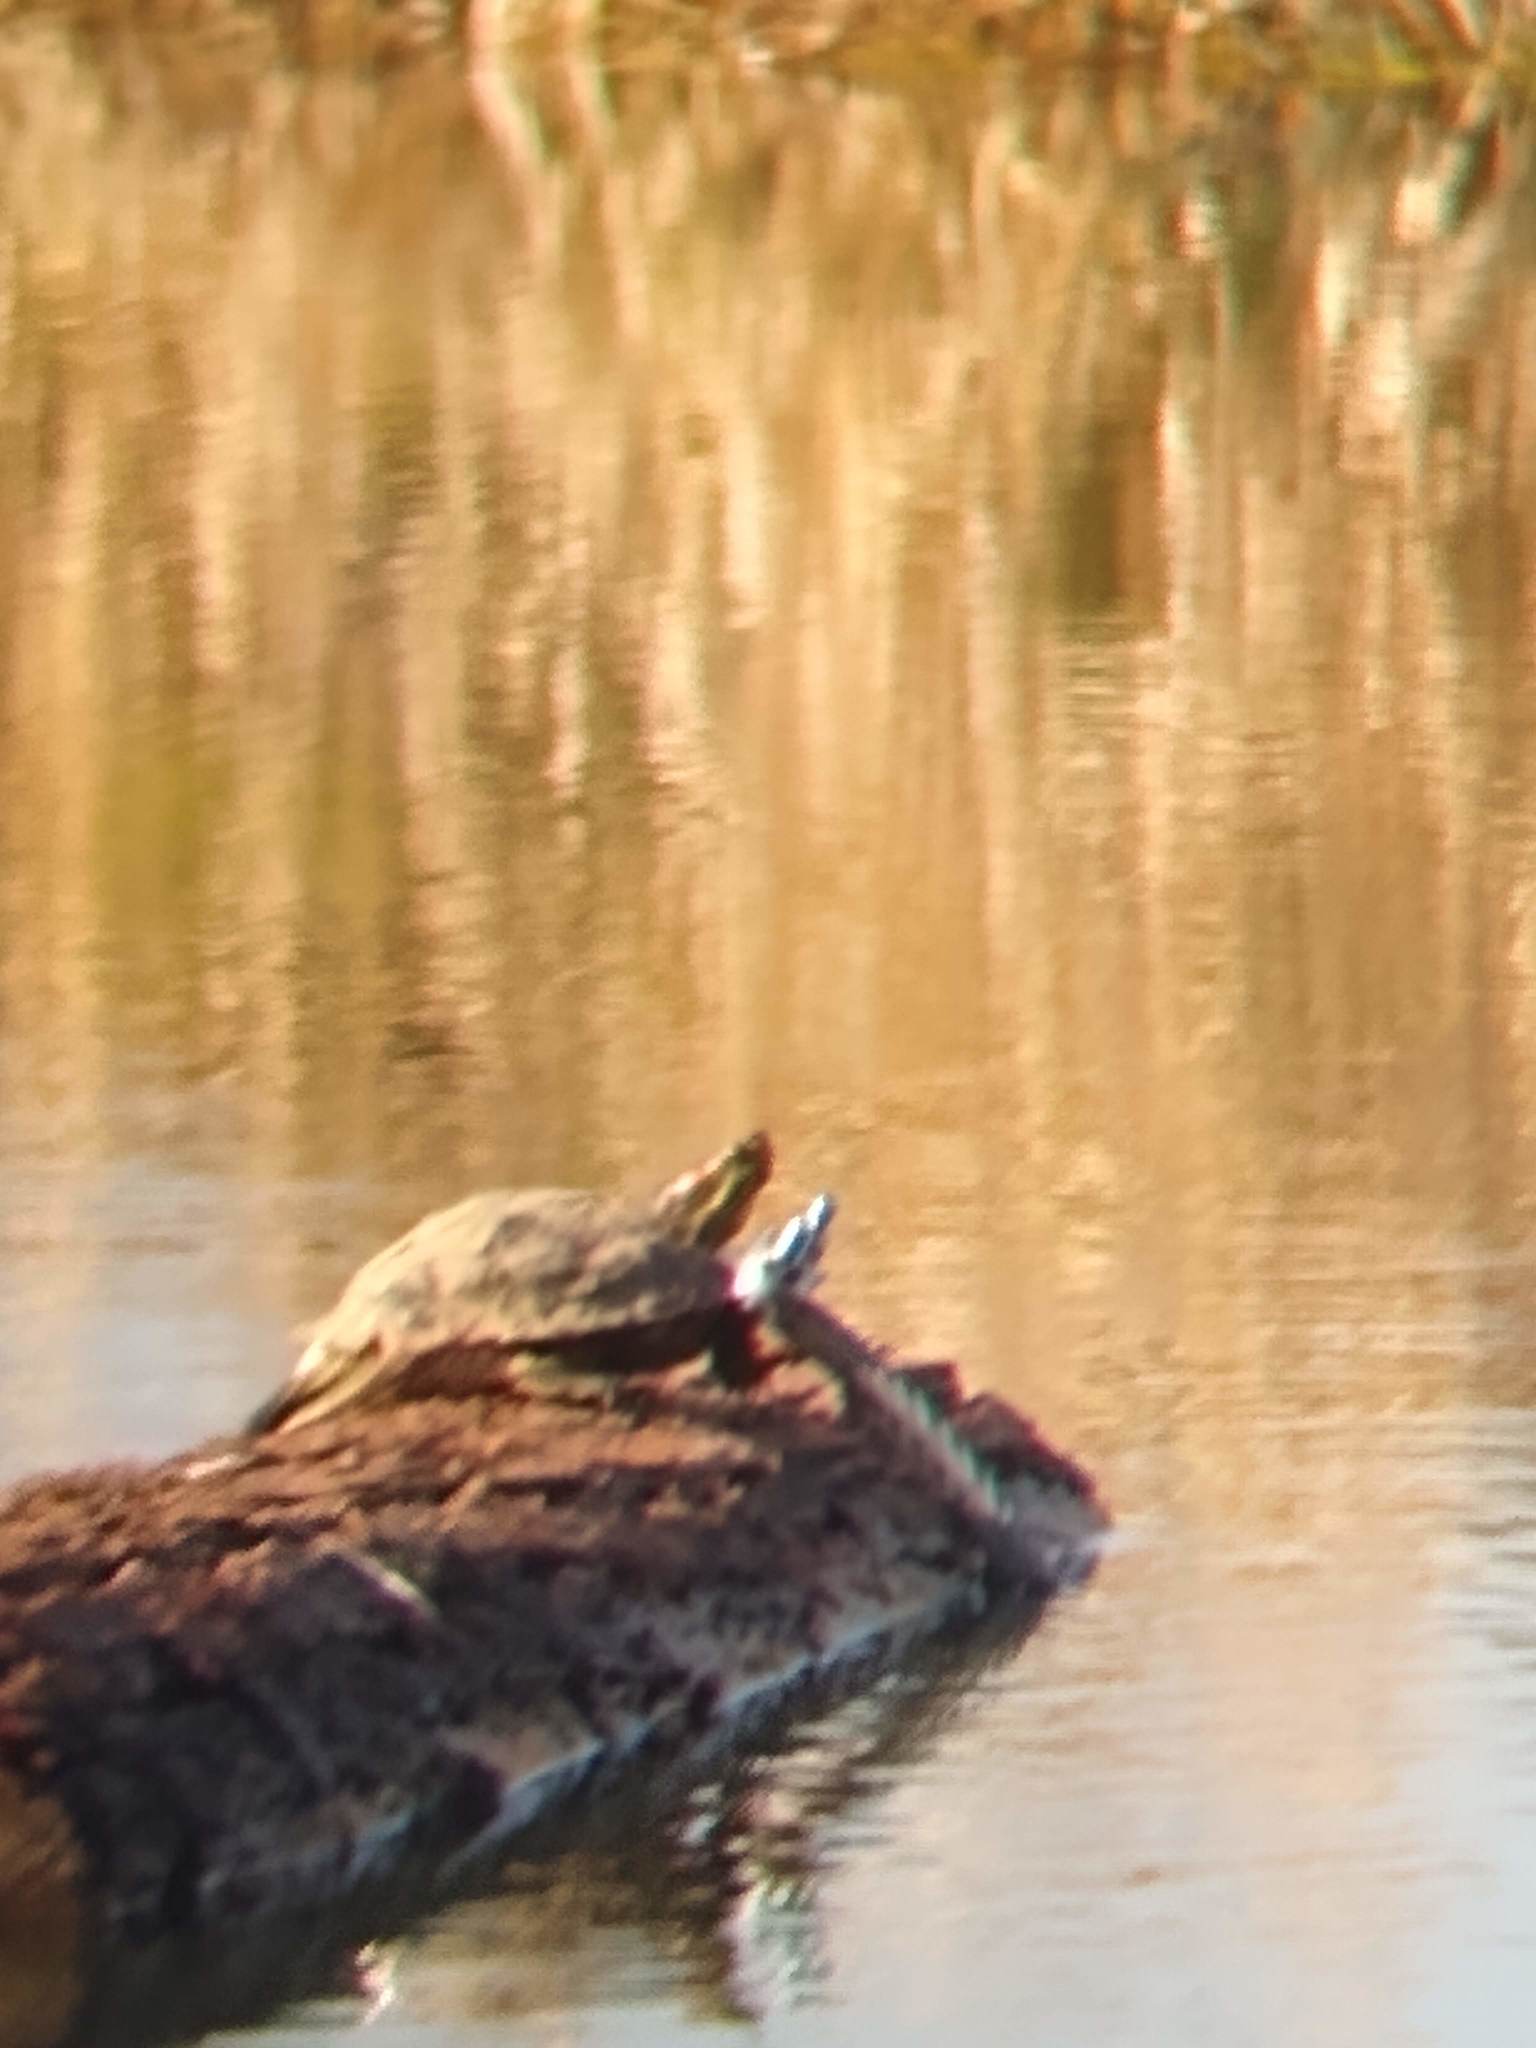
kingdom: Animalia
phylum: Chordata
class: Testudines
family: Emydidae
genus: Trachemys
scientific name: Trachemys scripta
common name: Slider
